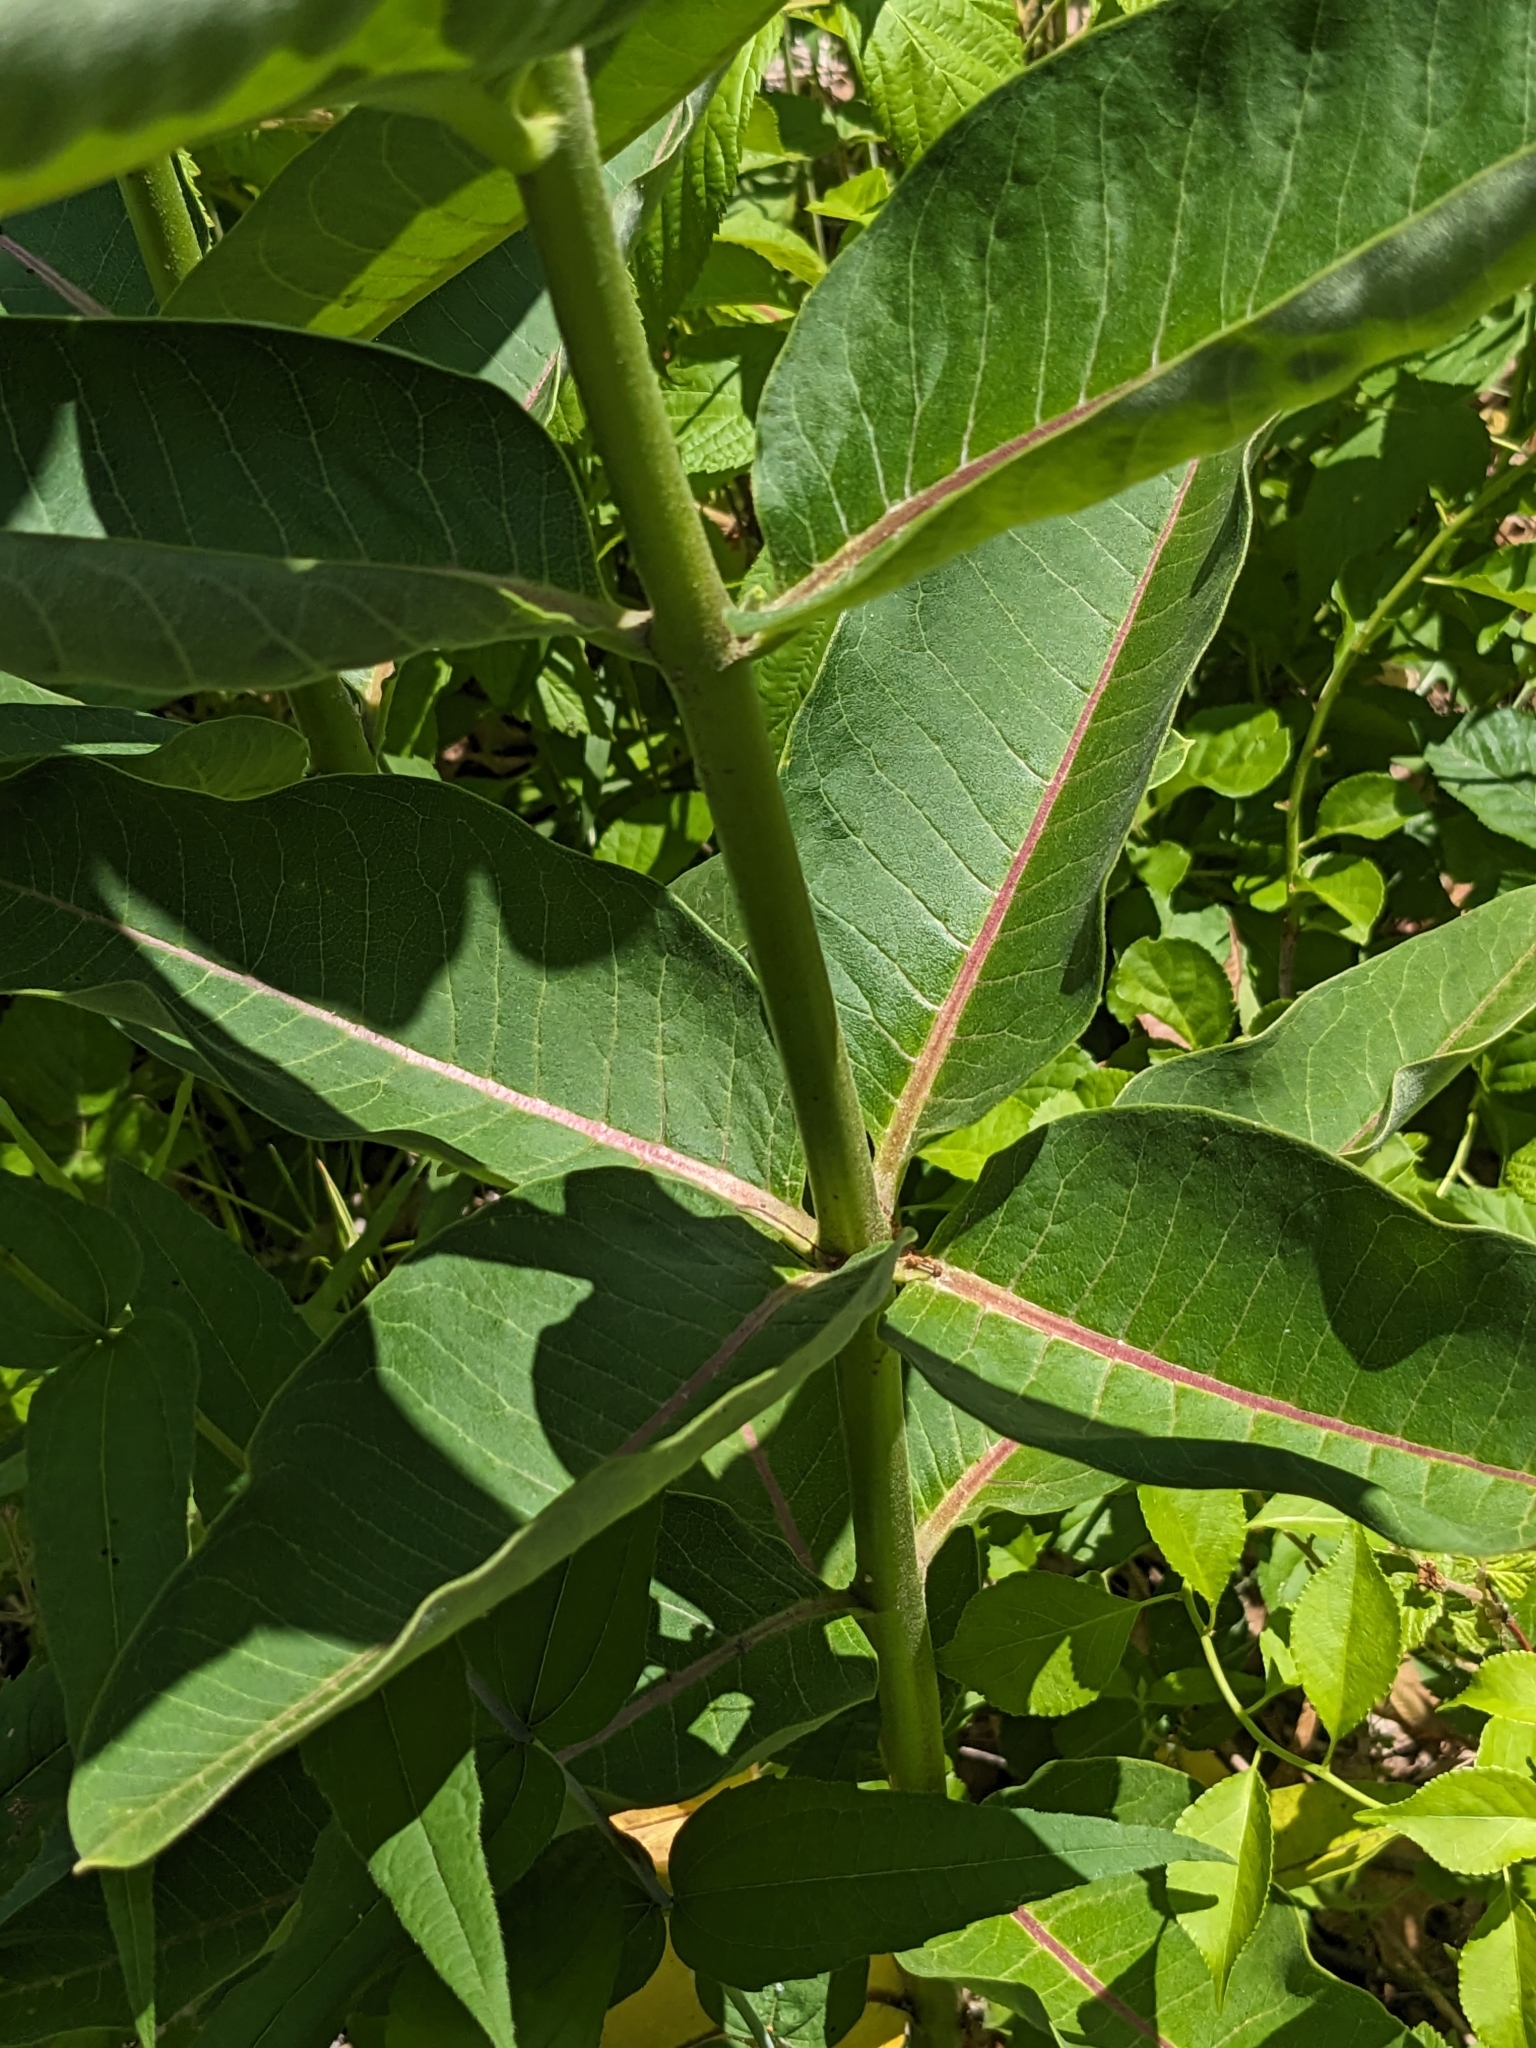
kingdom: Plantae
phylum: Tracheophyta
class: Magnoliopsida
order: Gentianales
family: Apocynaceae
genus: Asclepias
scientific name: Asclepias syriaca
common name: Common milkweed
